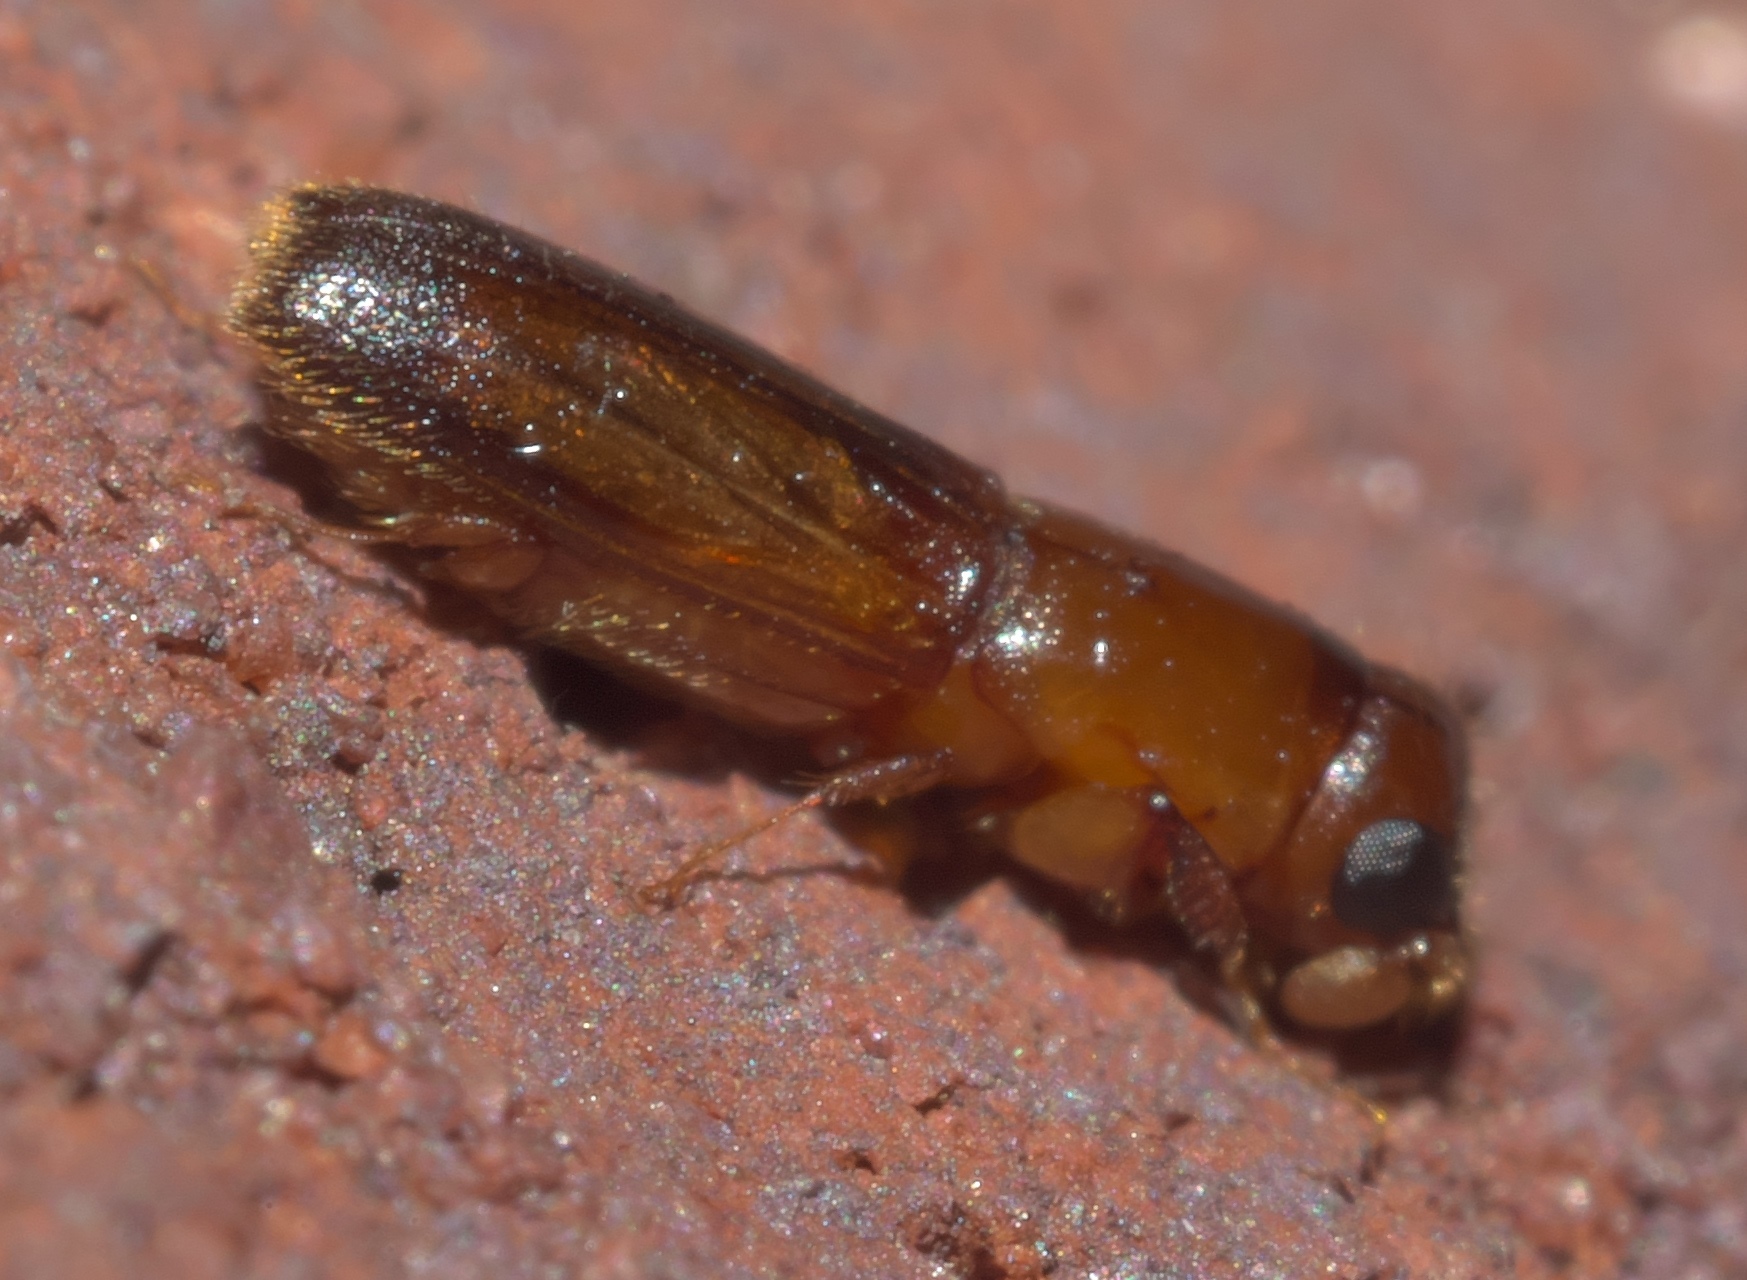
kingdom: Animalia
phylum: Arthropoda
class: Insecta
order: Coleoptera
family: Curculionidae
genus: Euplatypus
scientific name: Euplatypus compositus
